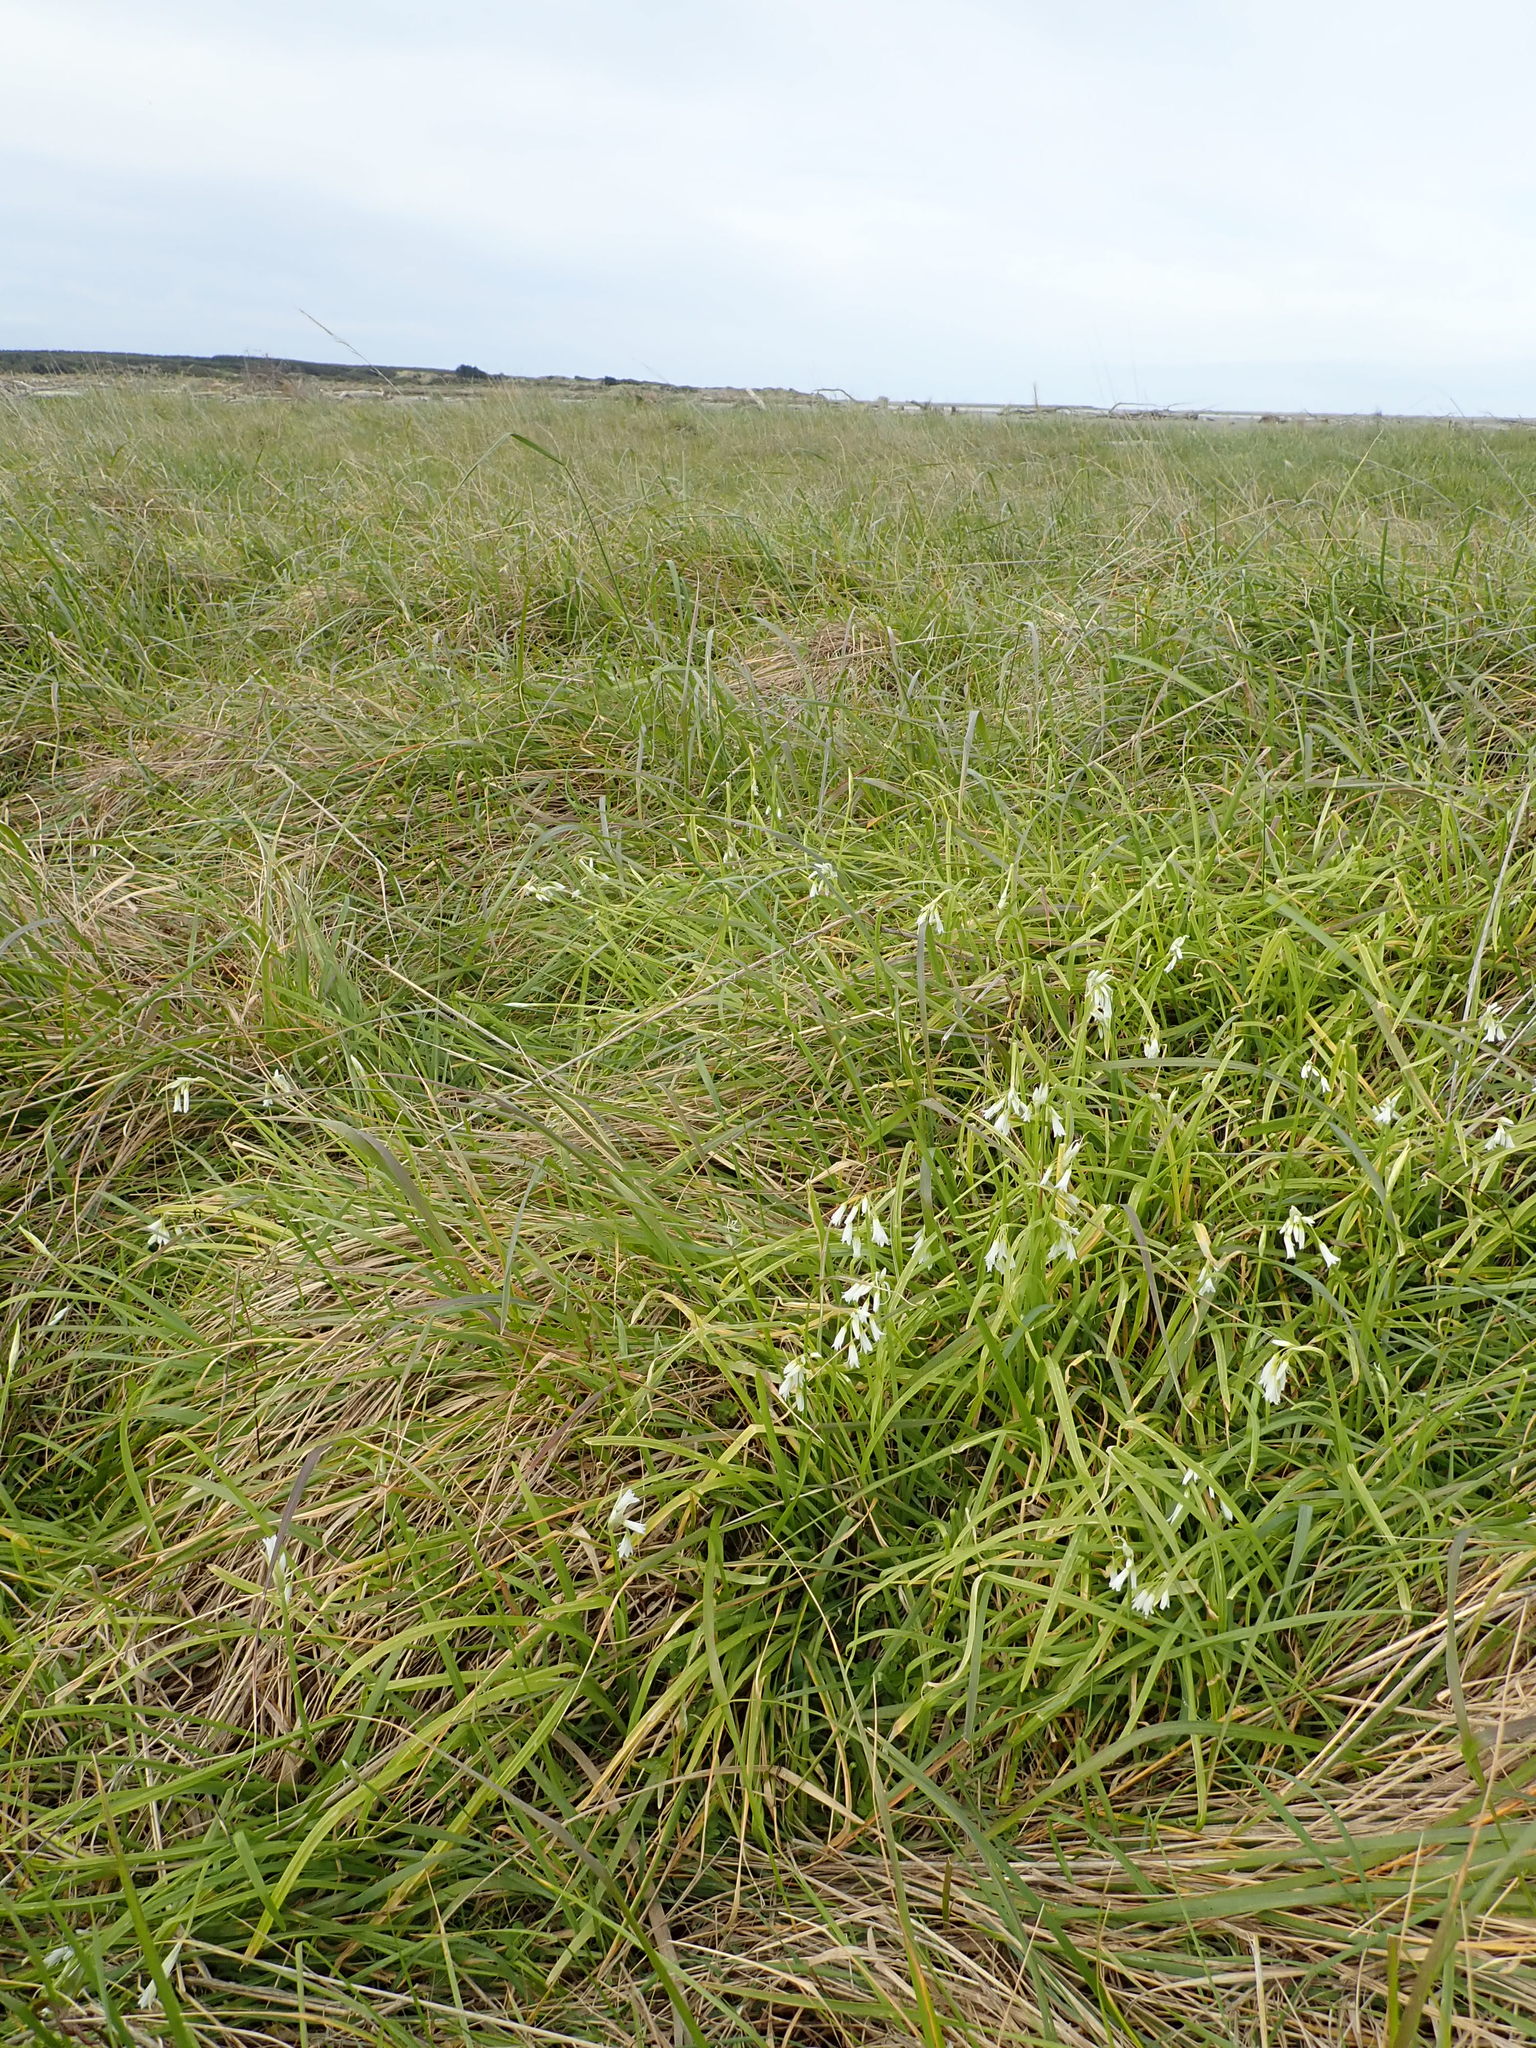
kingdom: Plantae
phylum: Tracheophyta
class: Liliopsida
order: Asparagales
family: Amaryllidaceae
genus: Allium
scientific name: Allium triquetrum
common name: Three-cornered garlic
